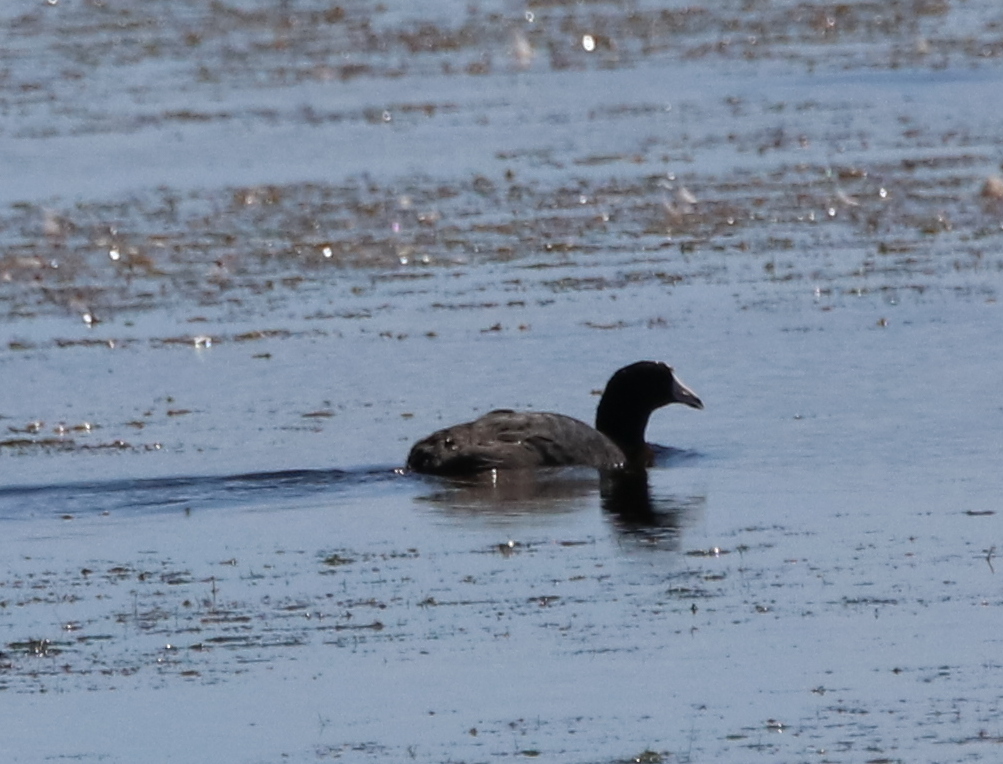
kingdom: Animalia
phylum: Chordata
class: Aves
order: Gruiformes
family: Rallidae
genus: Fulica
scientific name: Fulica americana
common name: American coot
